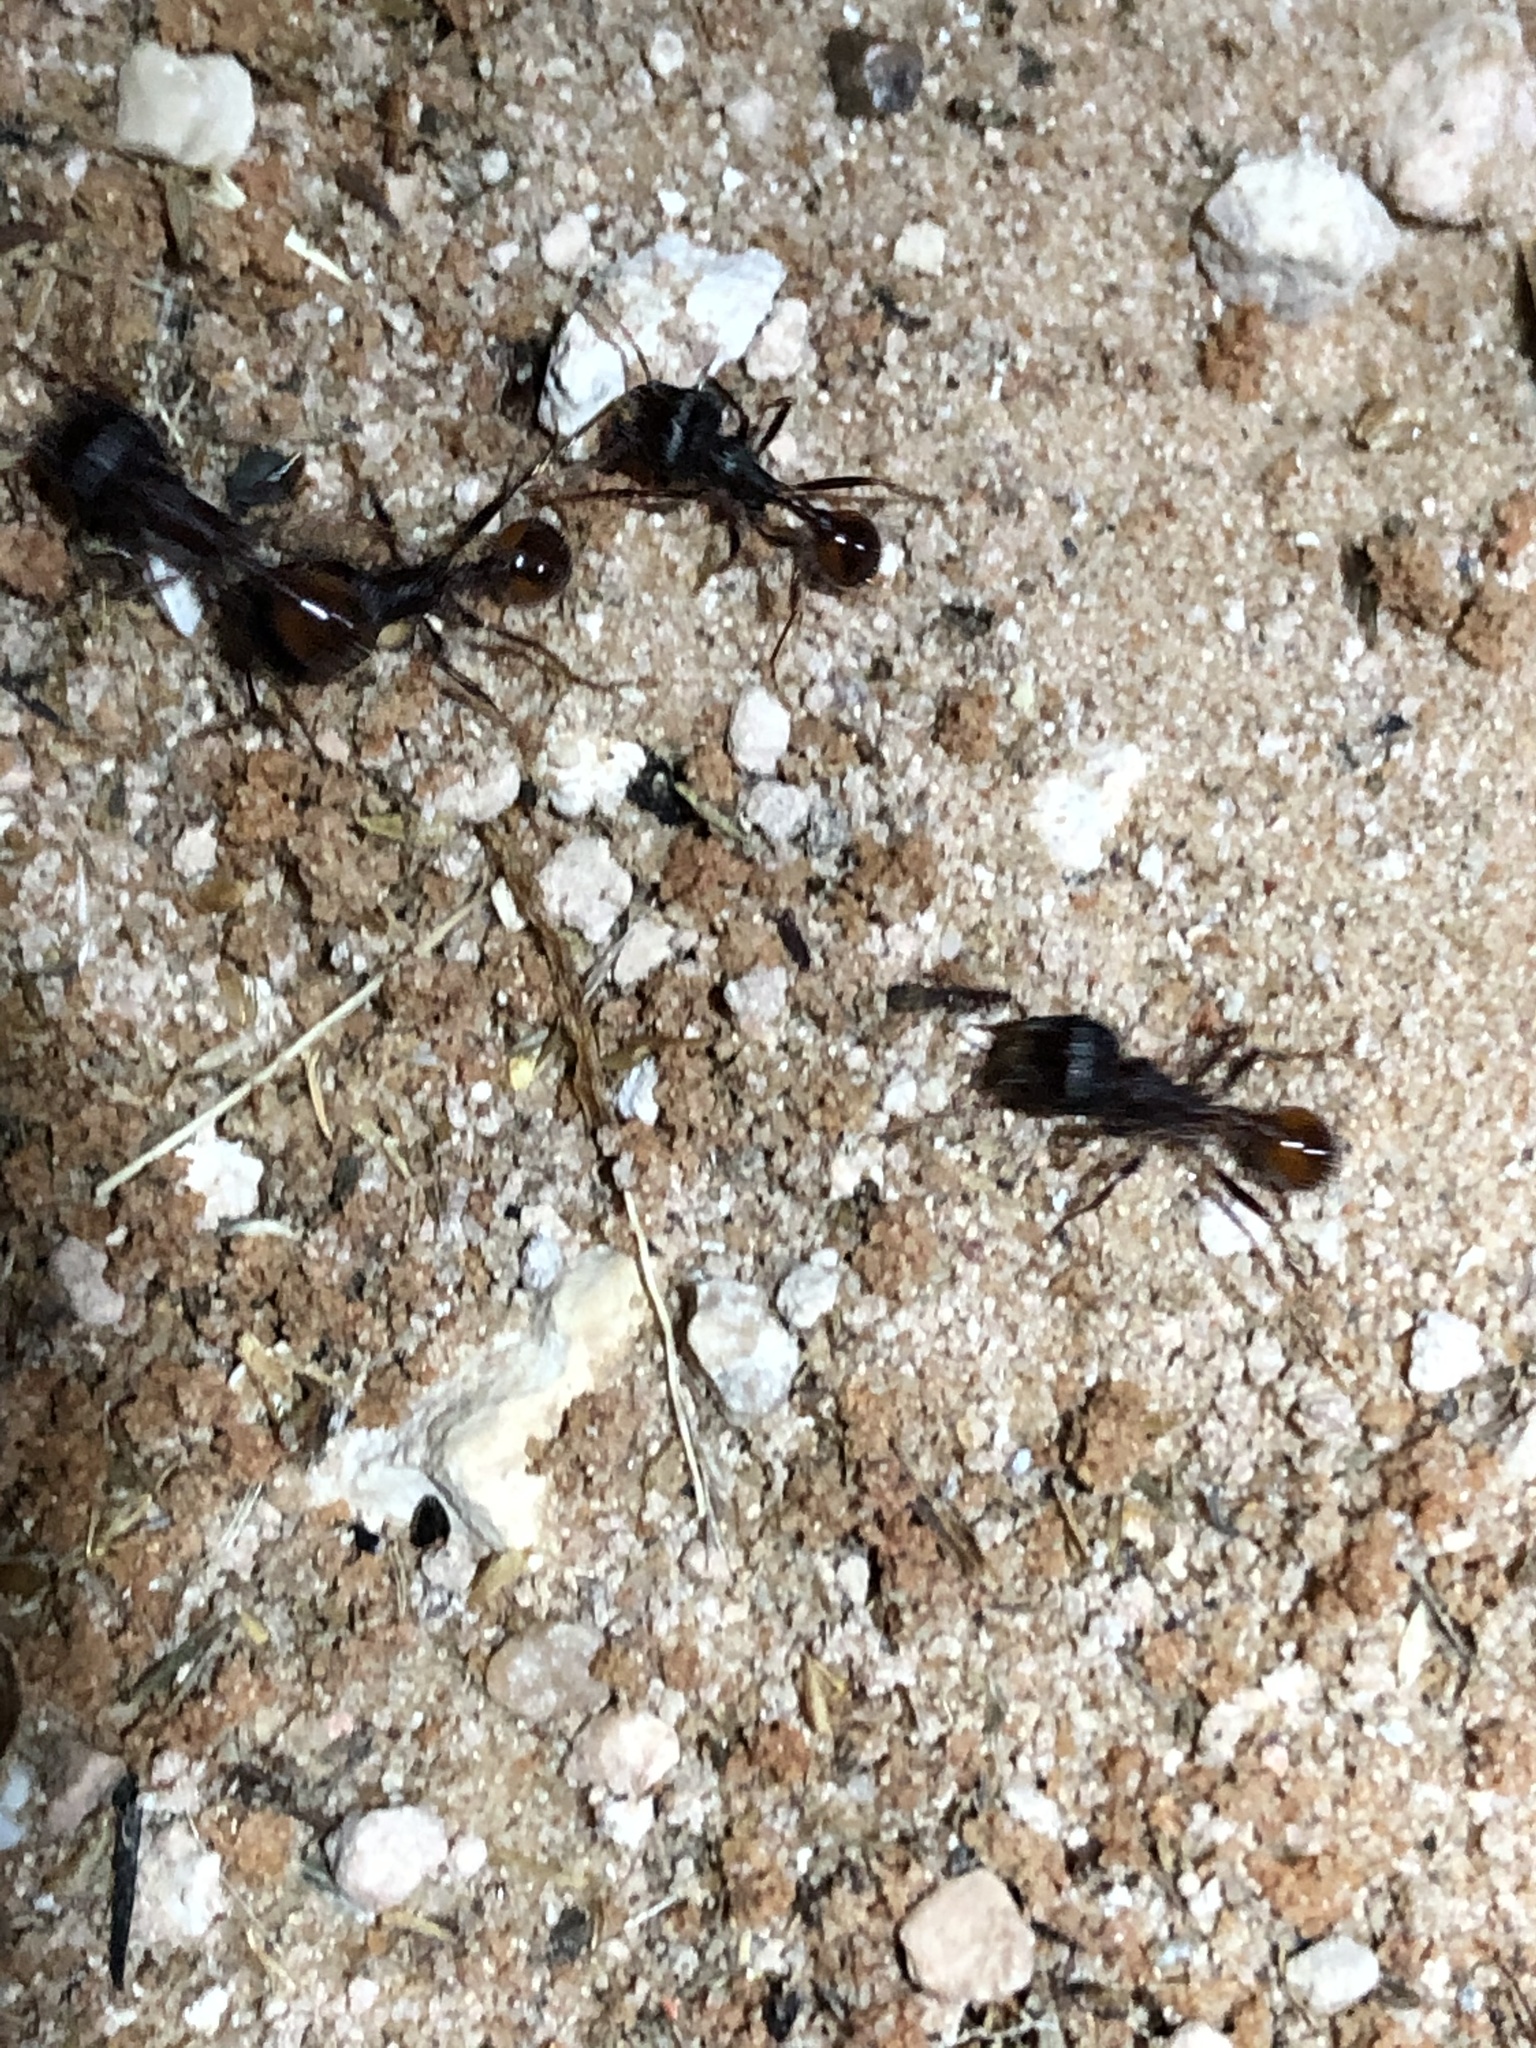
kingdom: Animalia
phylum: Arthropoda
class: Insecta
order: Hymenoptera
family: Formicidae
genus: Pogonomyrmex
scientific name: Pogonomyrmex rugosus
